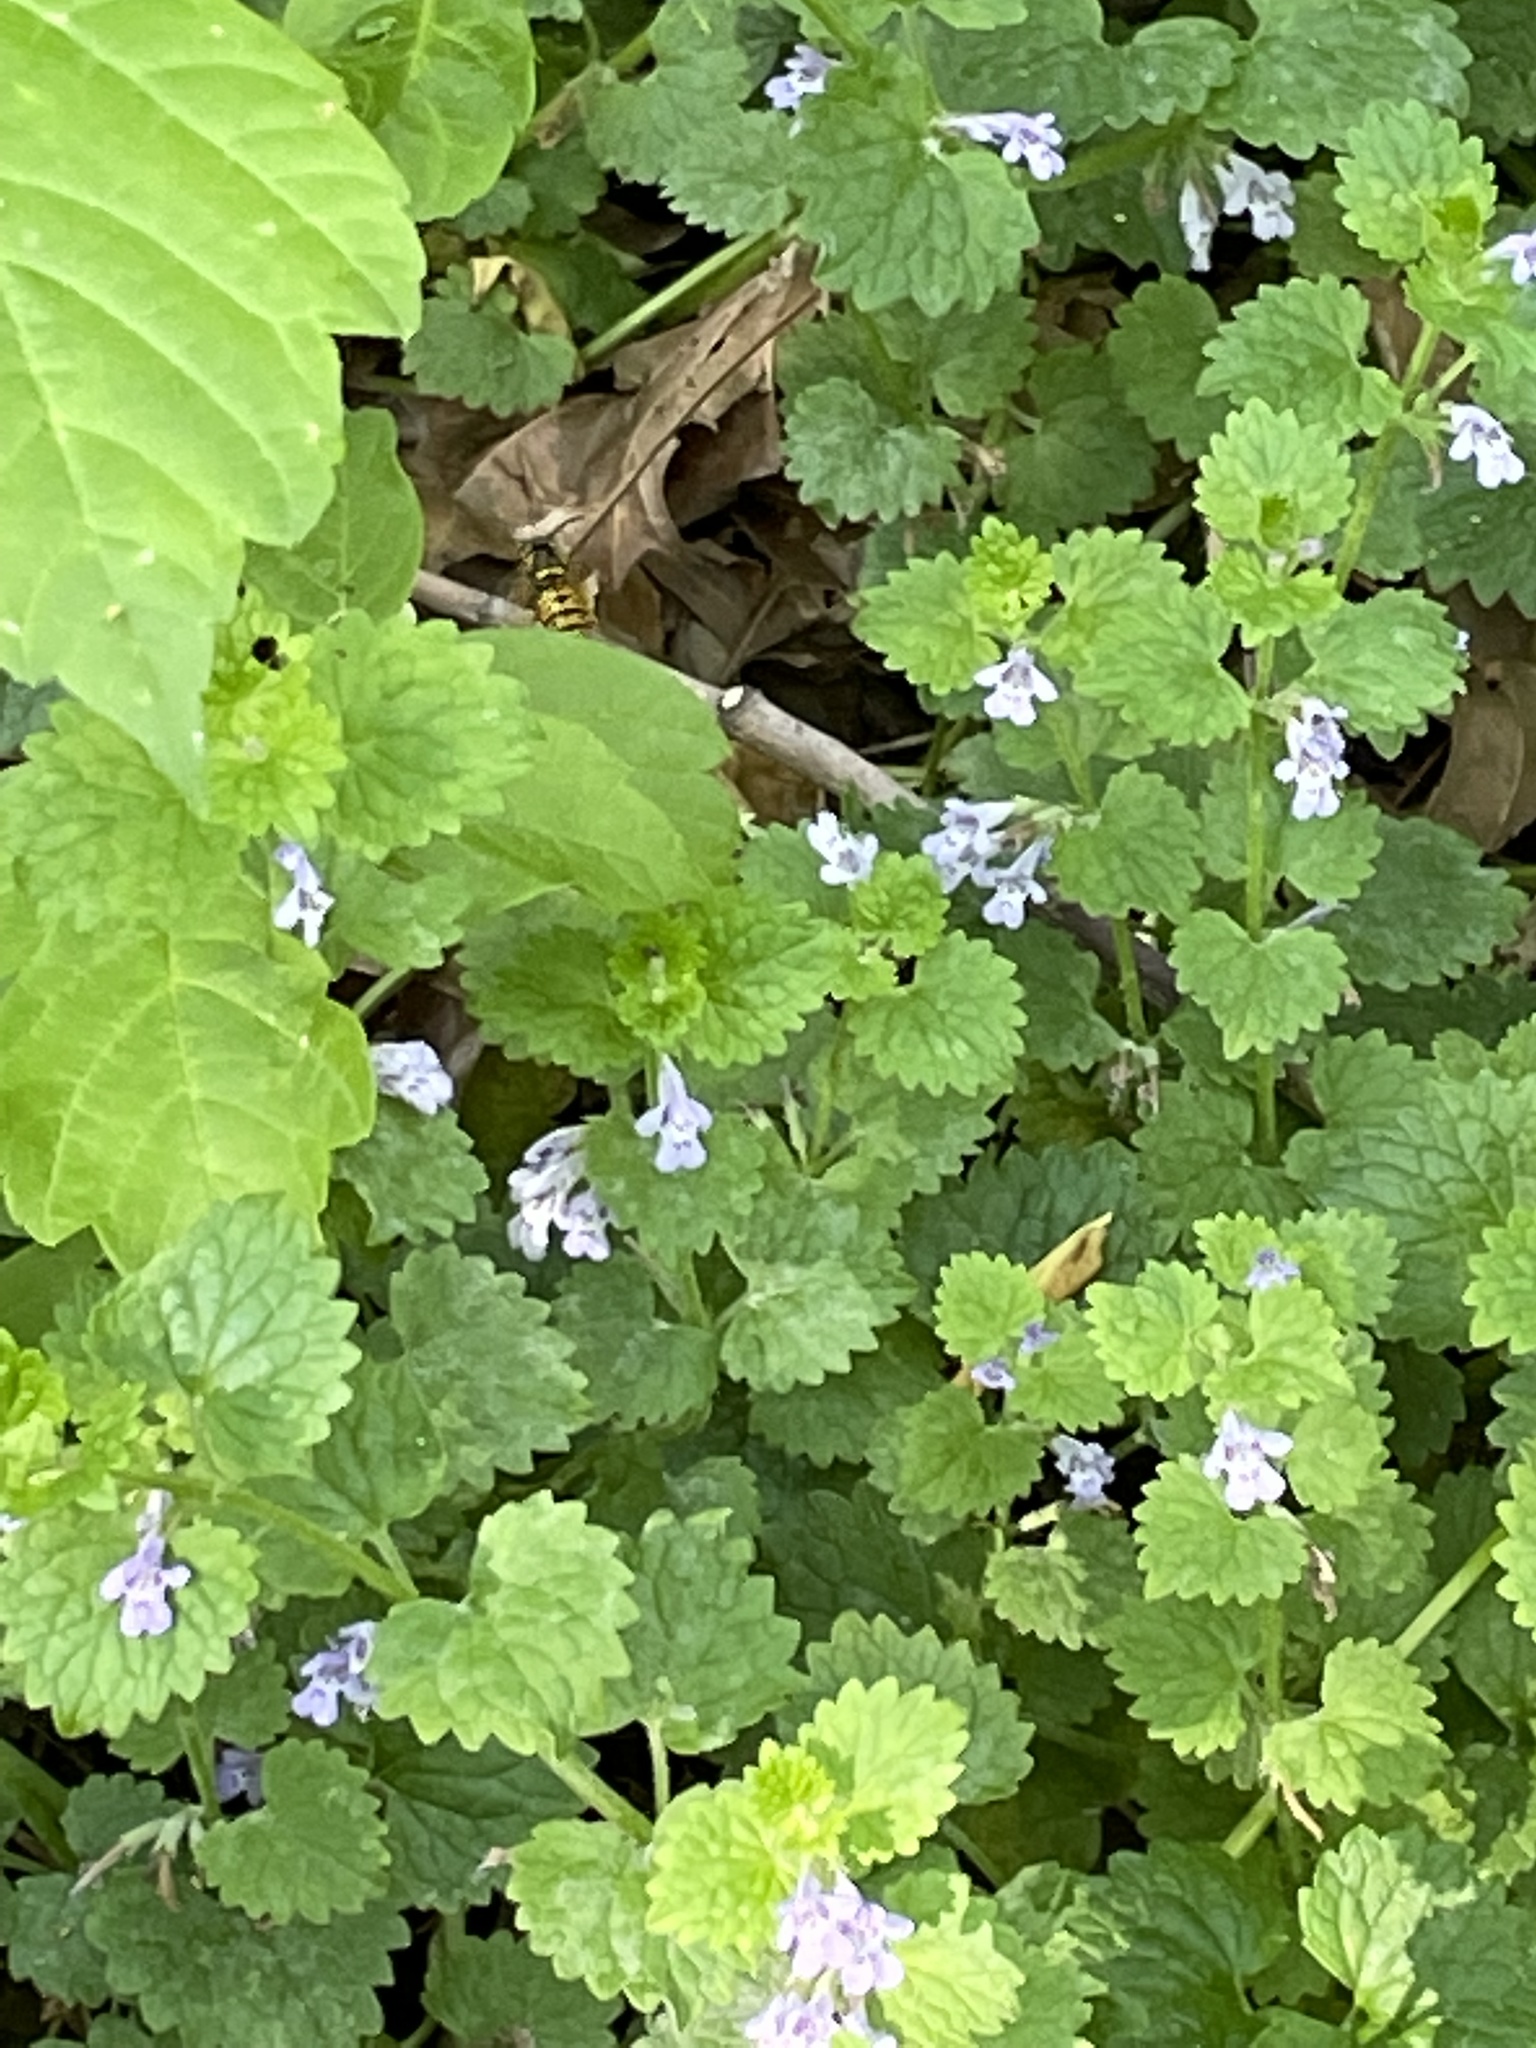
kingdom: Plantae
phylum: Tracheophyta
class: Magnoliopsida
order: Lamiales
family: Lamiaceae
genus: Glechoma
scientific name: Glechoma hederacea
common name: Ground ivy
